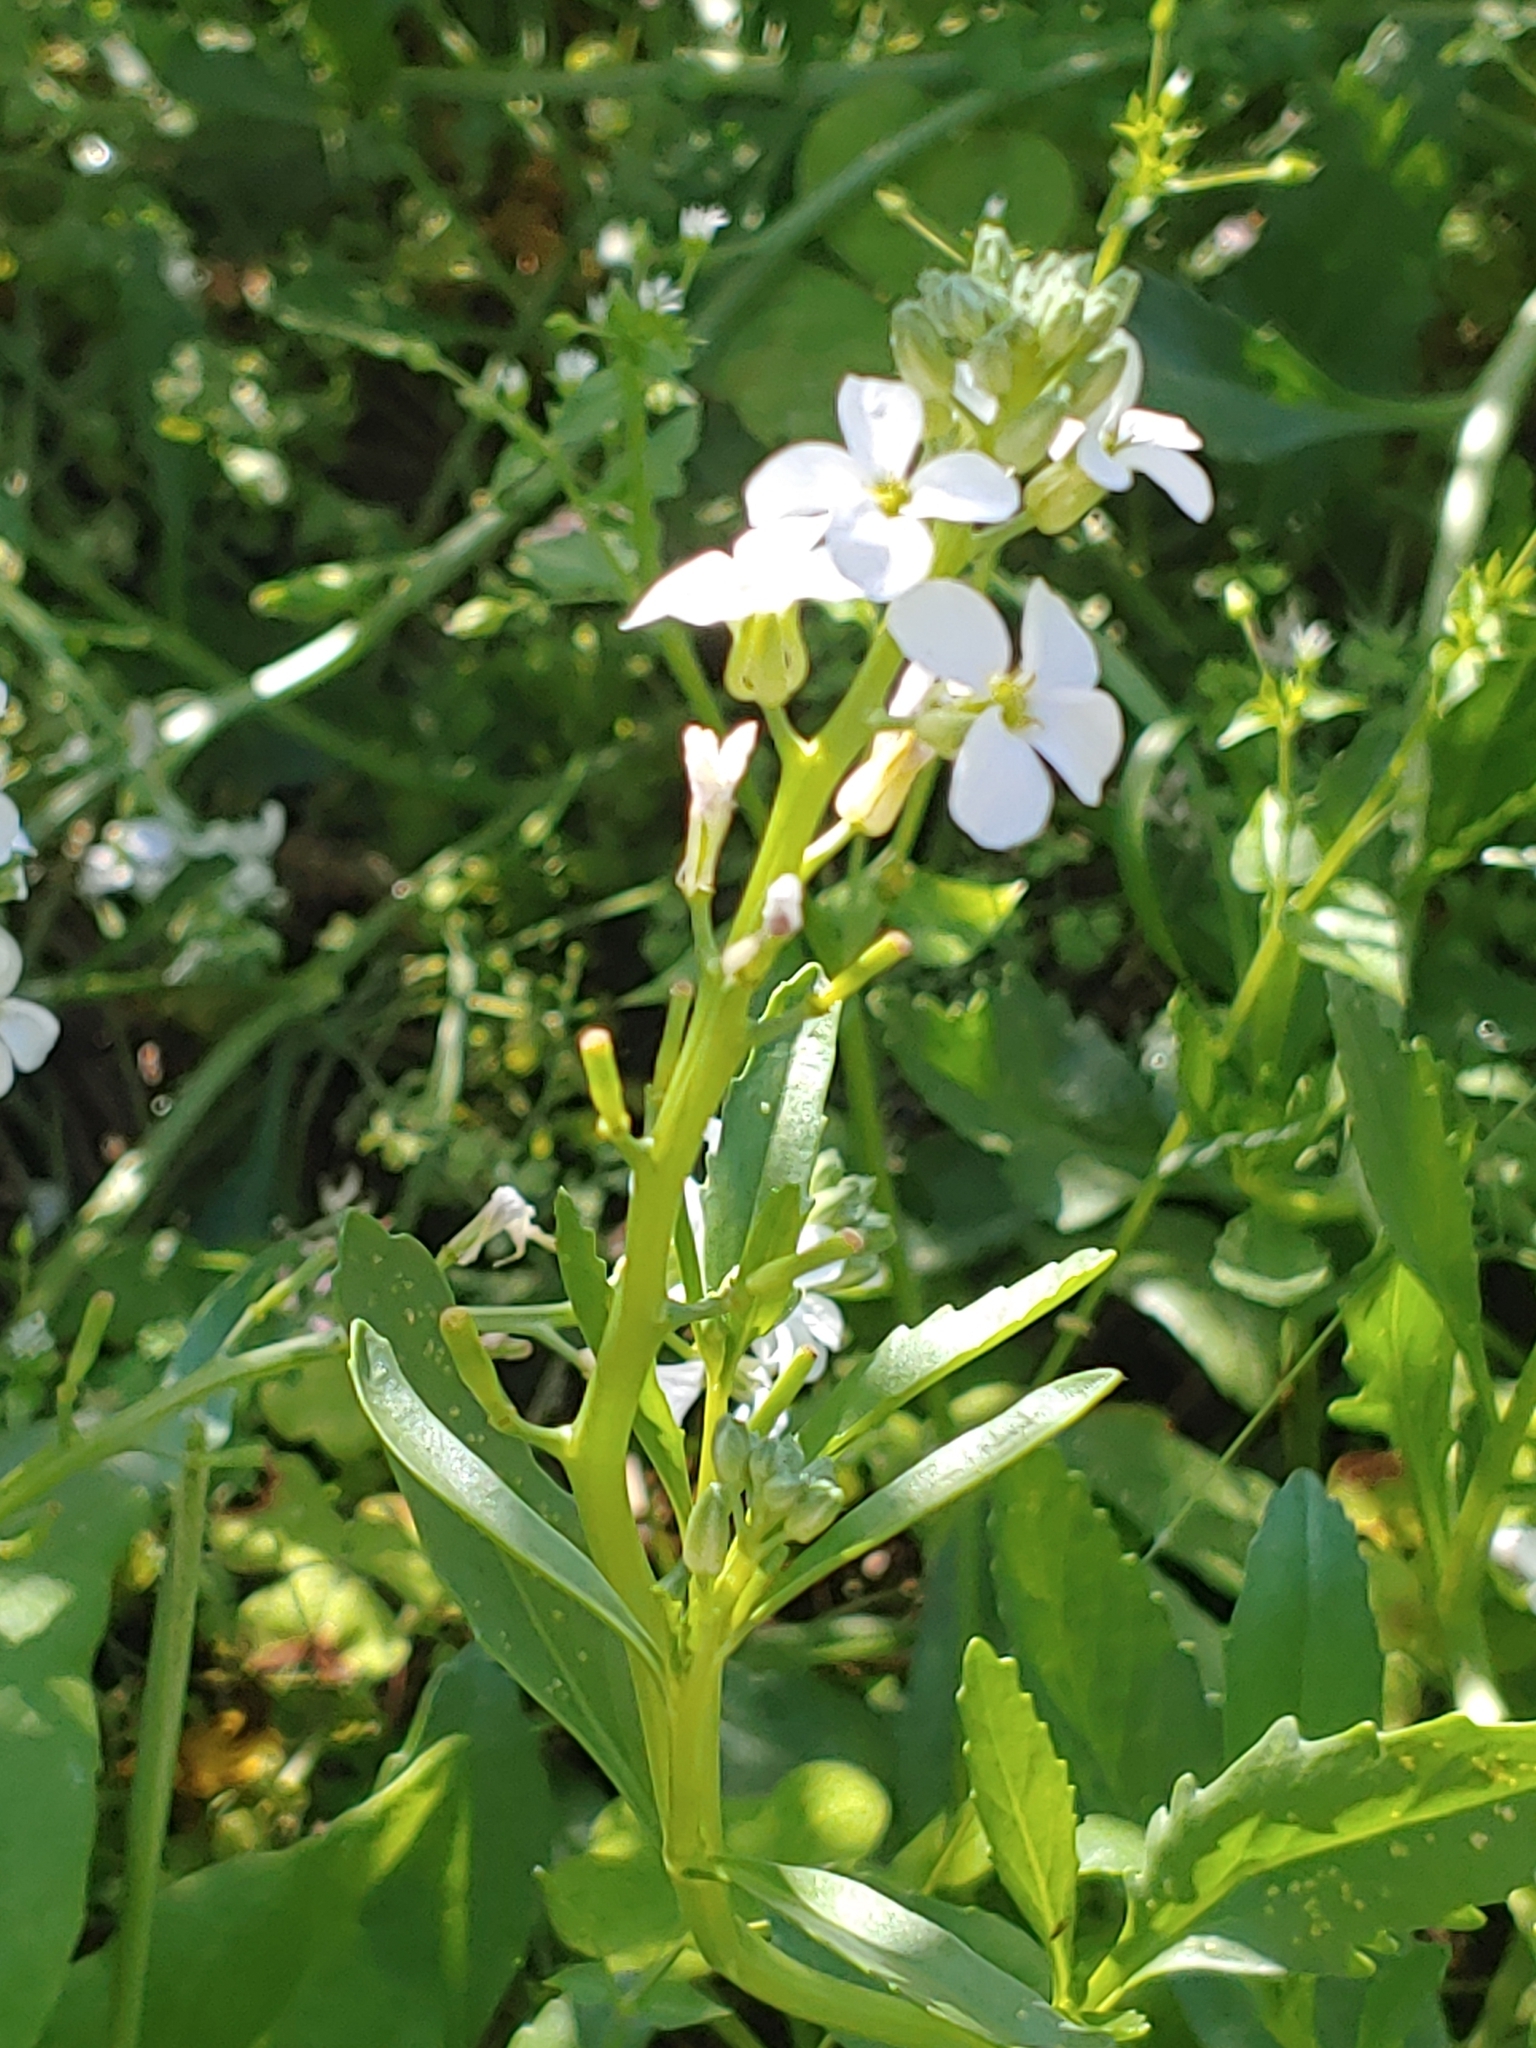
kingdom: Plantae
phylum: Tracheophyta
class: Magnoliopsida
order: Brassicales
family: Brassicaceae
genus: Cakile
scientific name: Cakile lanceolata
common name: Sea rocket
